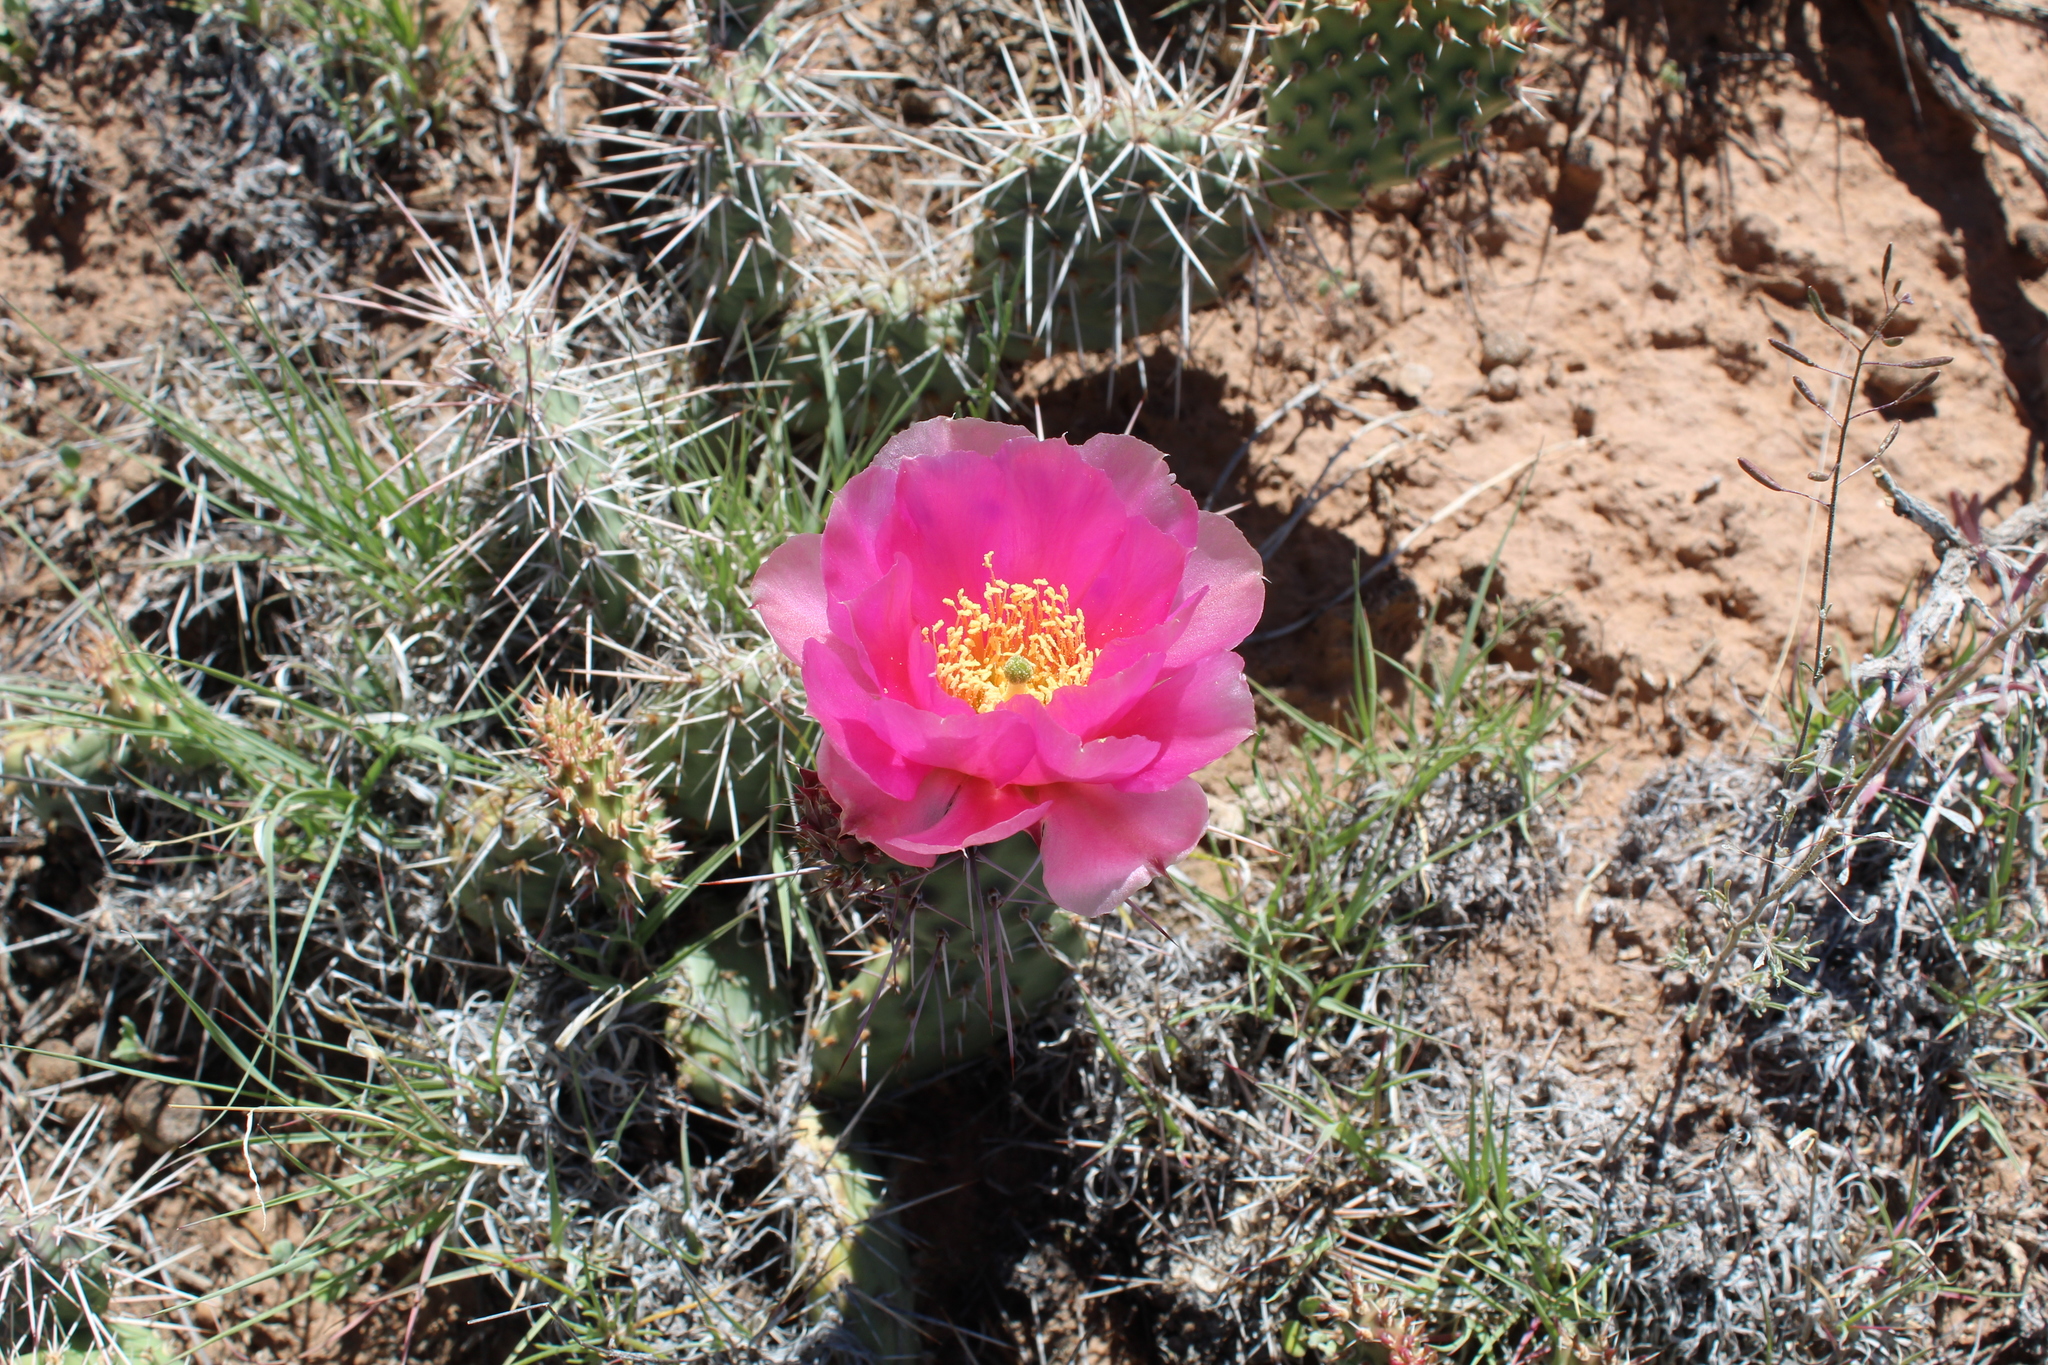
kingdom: Plantae
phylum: Tracheophyta
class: Magnoliopsida
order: Caryophyllales
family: Cactaceae
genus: Opuntia
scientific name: Opuntia polyacantha
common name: Plains prickly-pear
